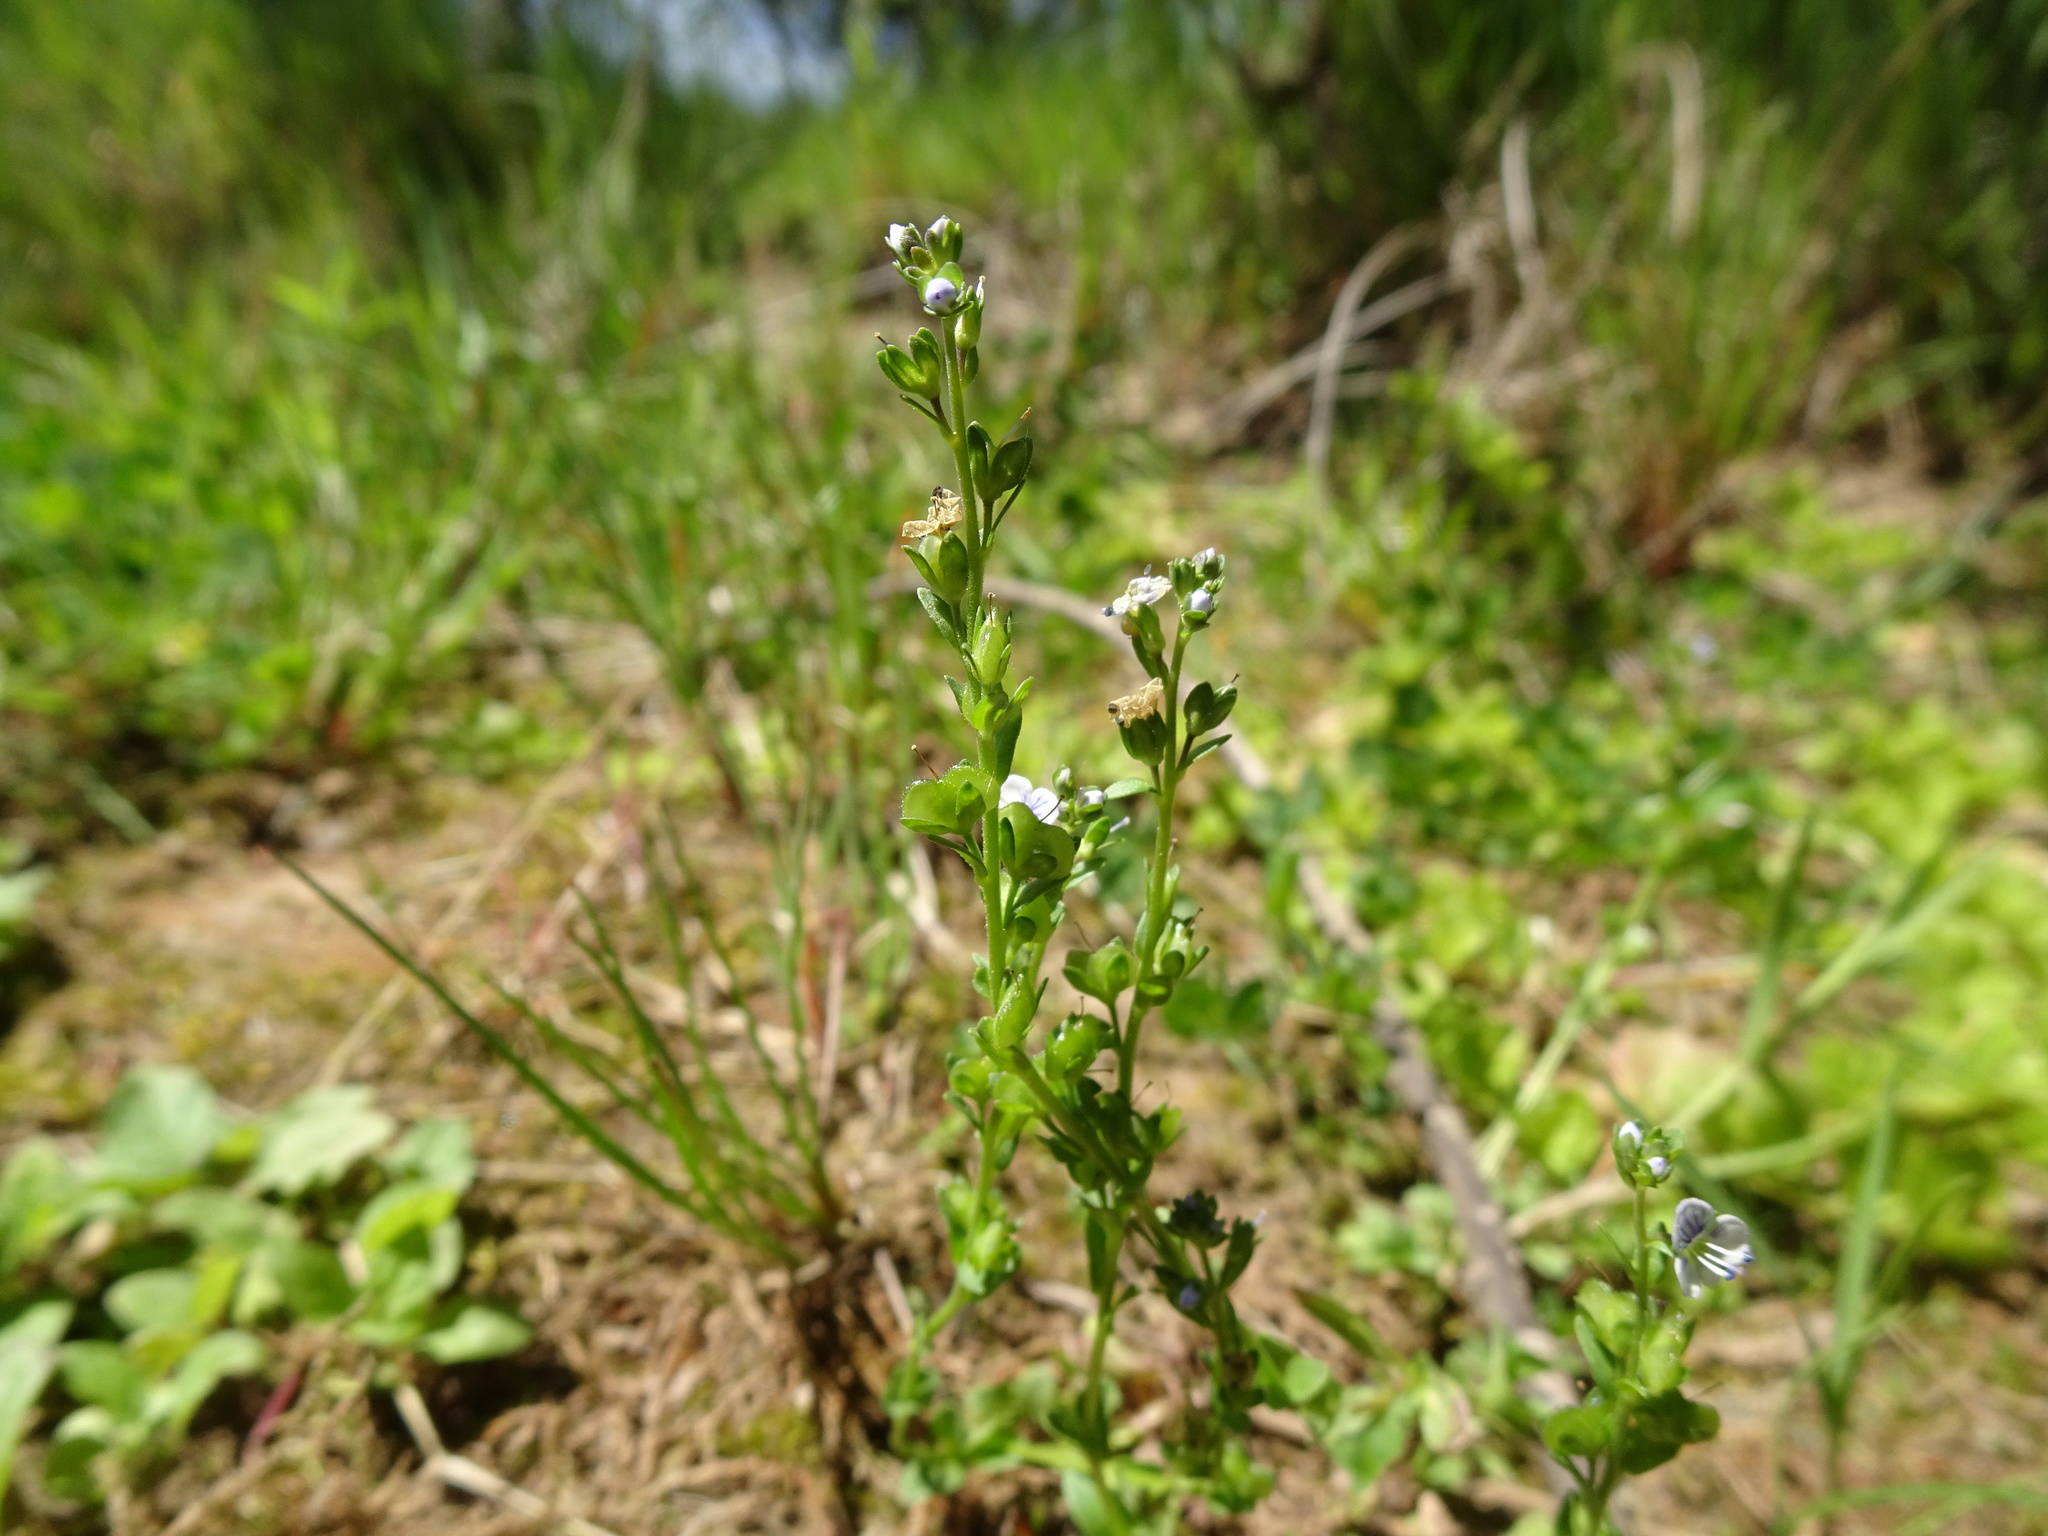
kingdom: Plantae
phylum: Tracheophyta
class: Magnoliopsida
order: Lamiales
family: Plantaginaceae
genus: Veronica
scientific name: Veronica serpyllifolia
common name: Thyme-leaved speedwell
